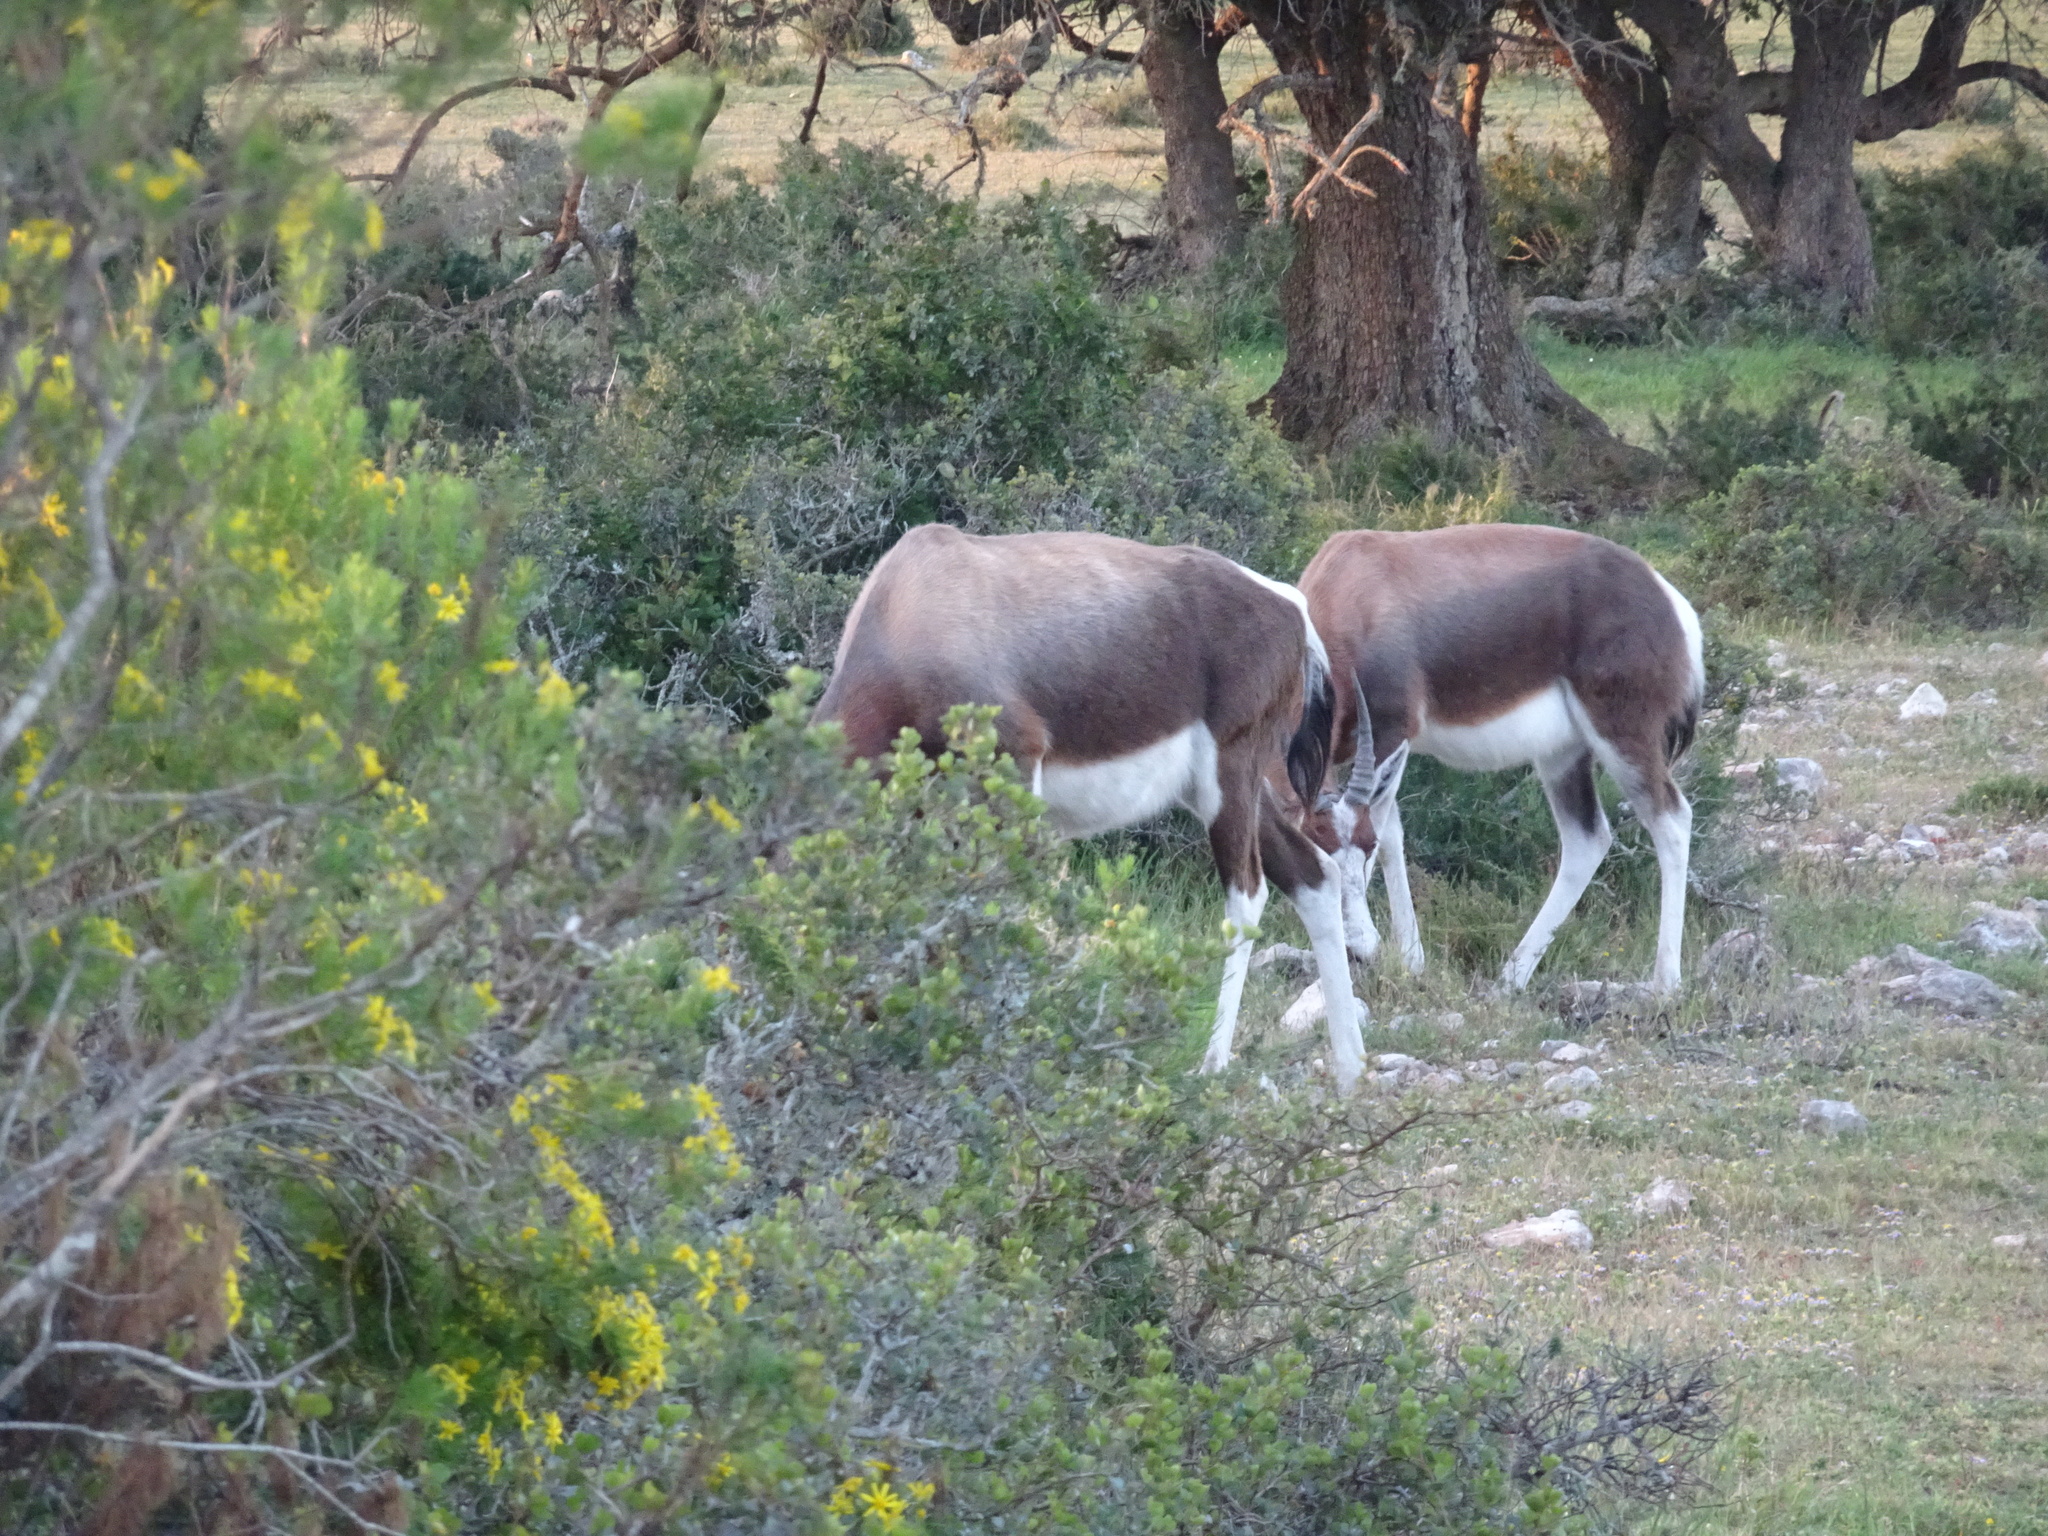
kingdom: Animalia
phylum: Chordata
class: Mammalia
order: Artiodactyla
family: Bovidae
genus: Damaliscus
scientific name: Damaliscus pygargus
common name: Bontebok
